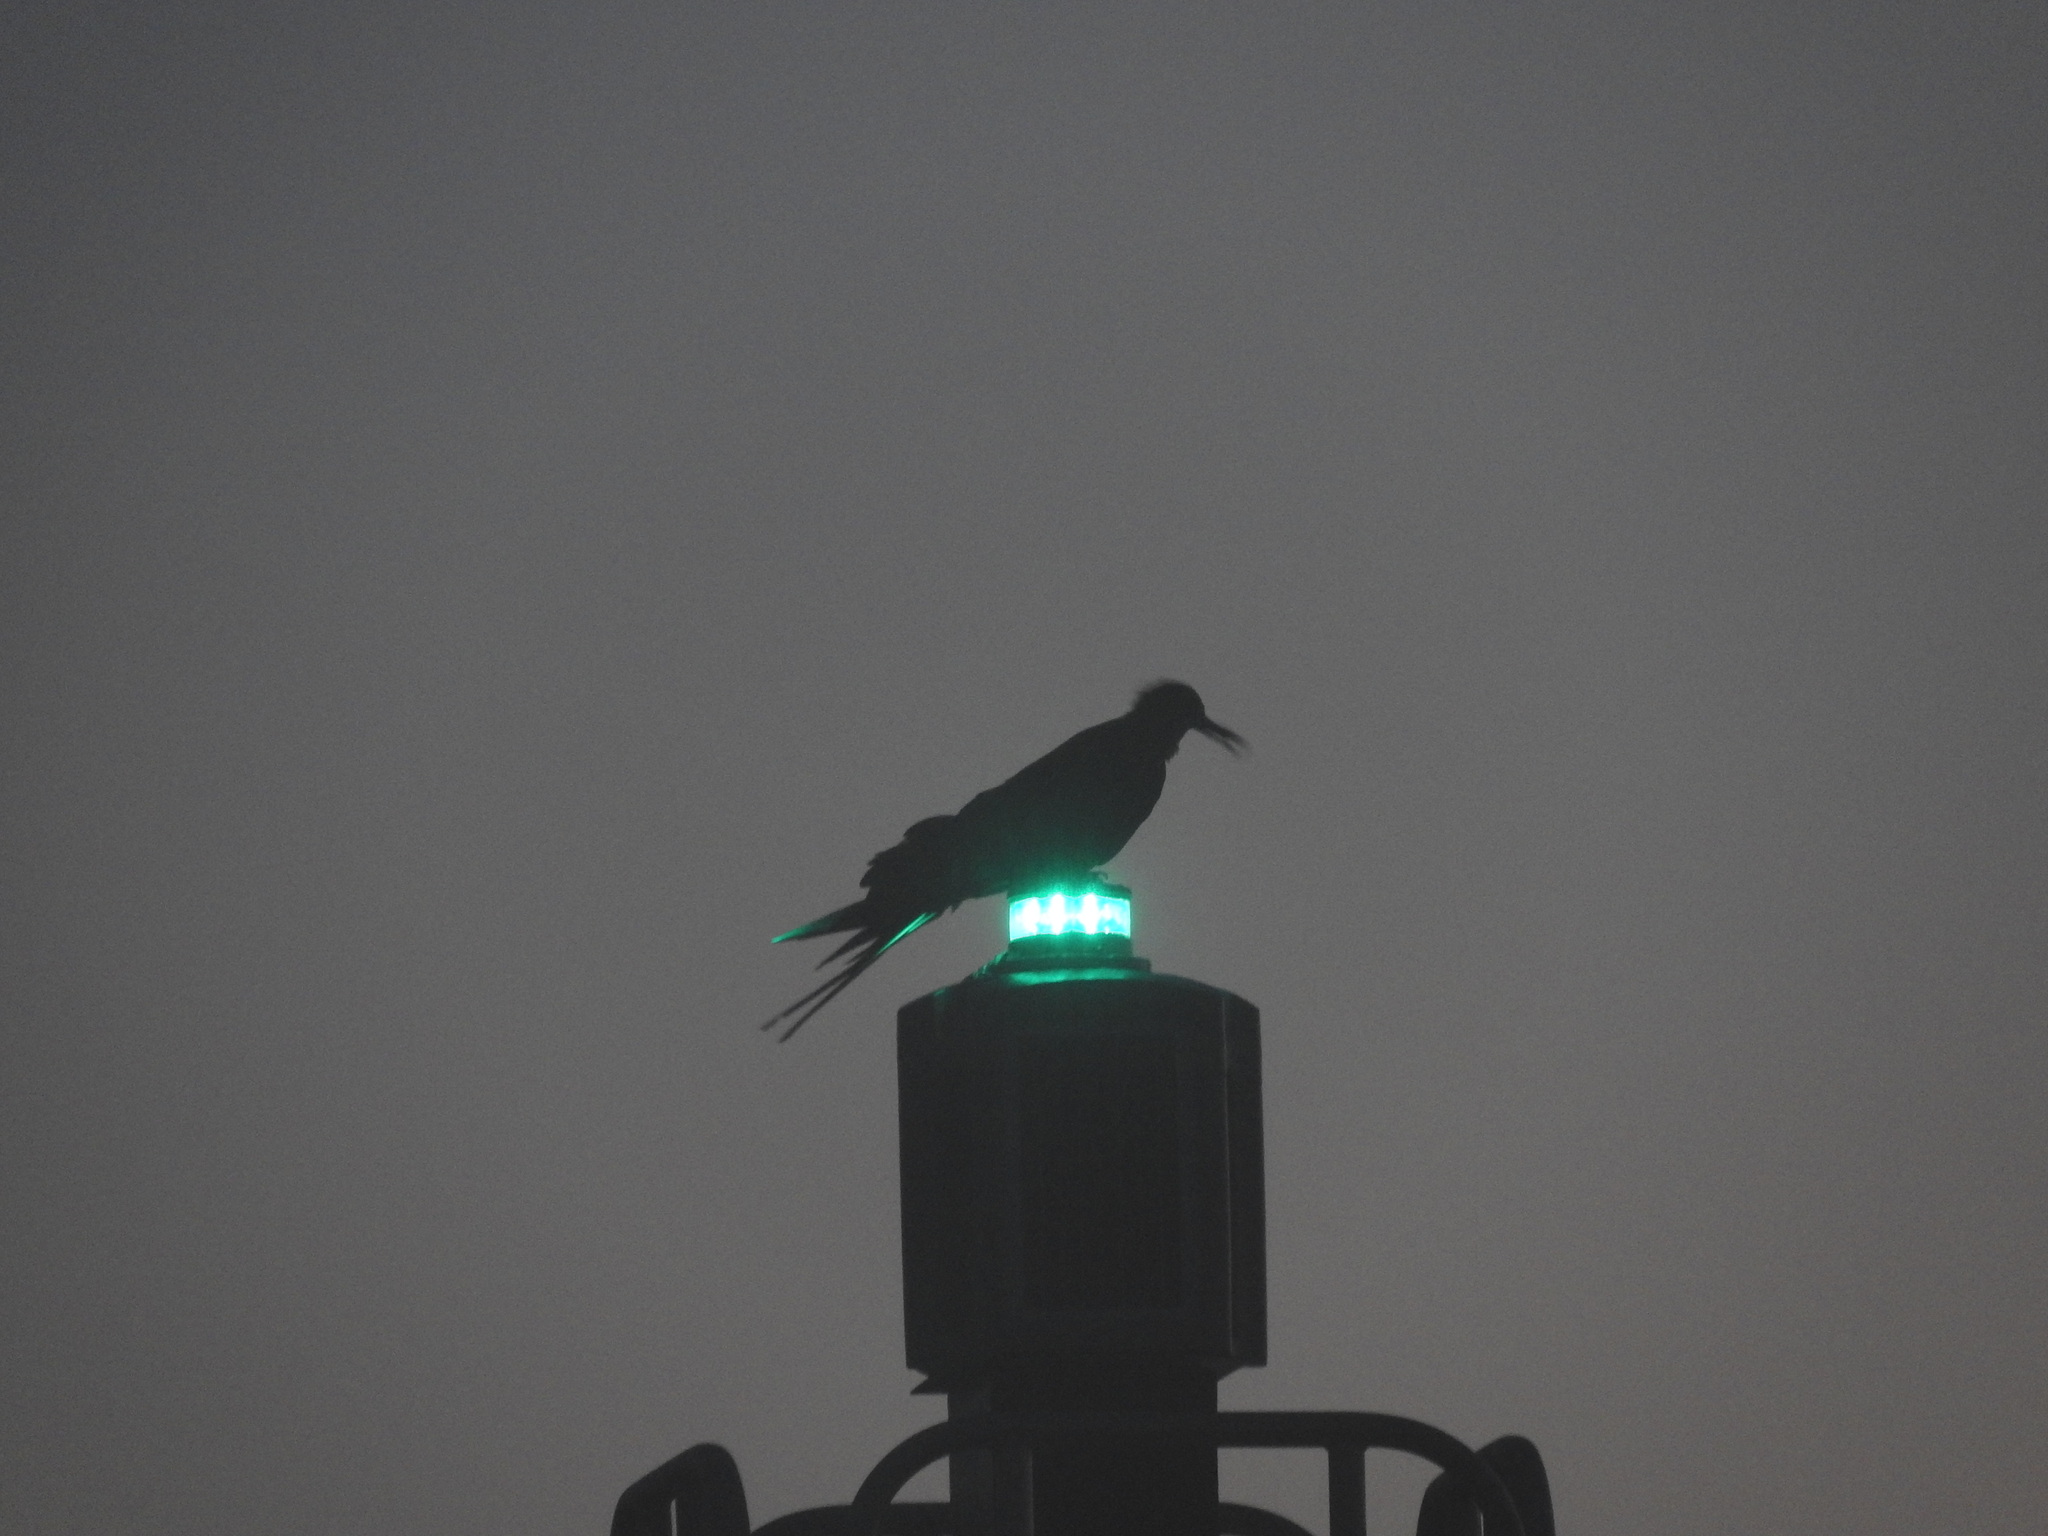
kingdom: Animalia
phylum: Chordata
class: Aves
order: Suliformes
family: Fregatidae
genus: Fregata
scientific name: Fregata magnificens
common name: Magnificent frigatebird
